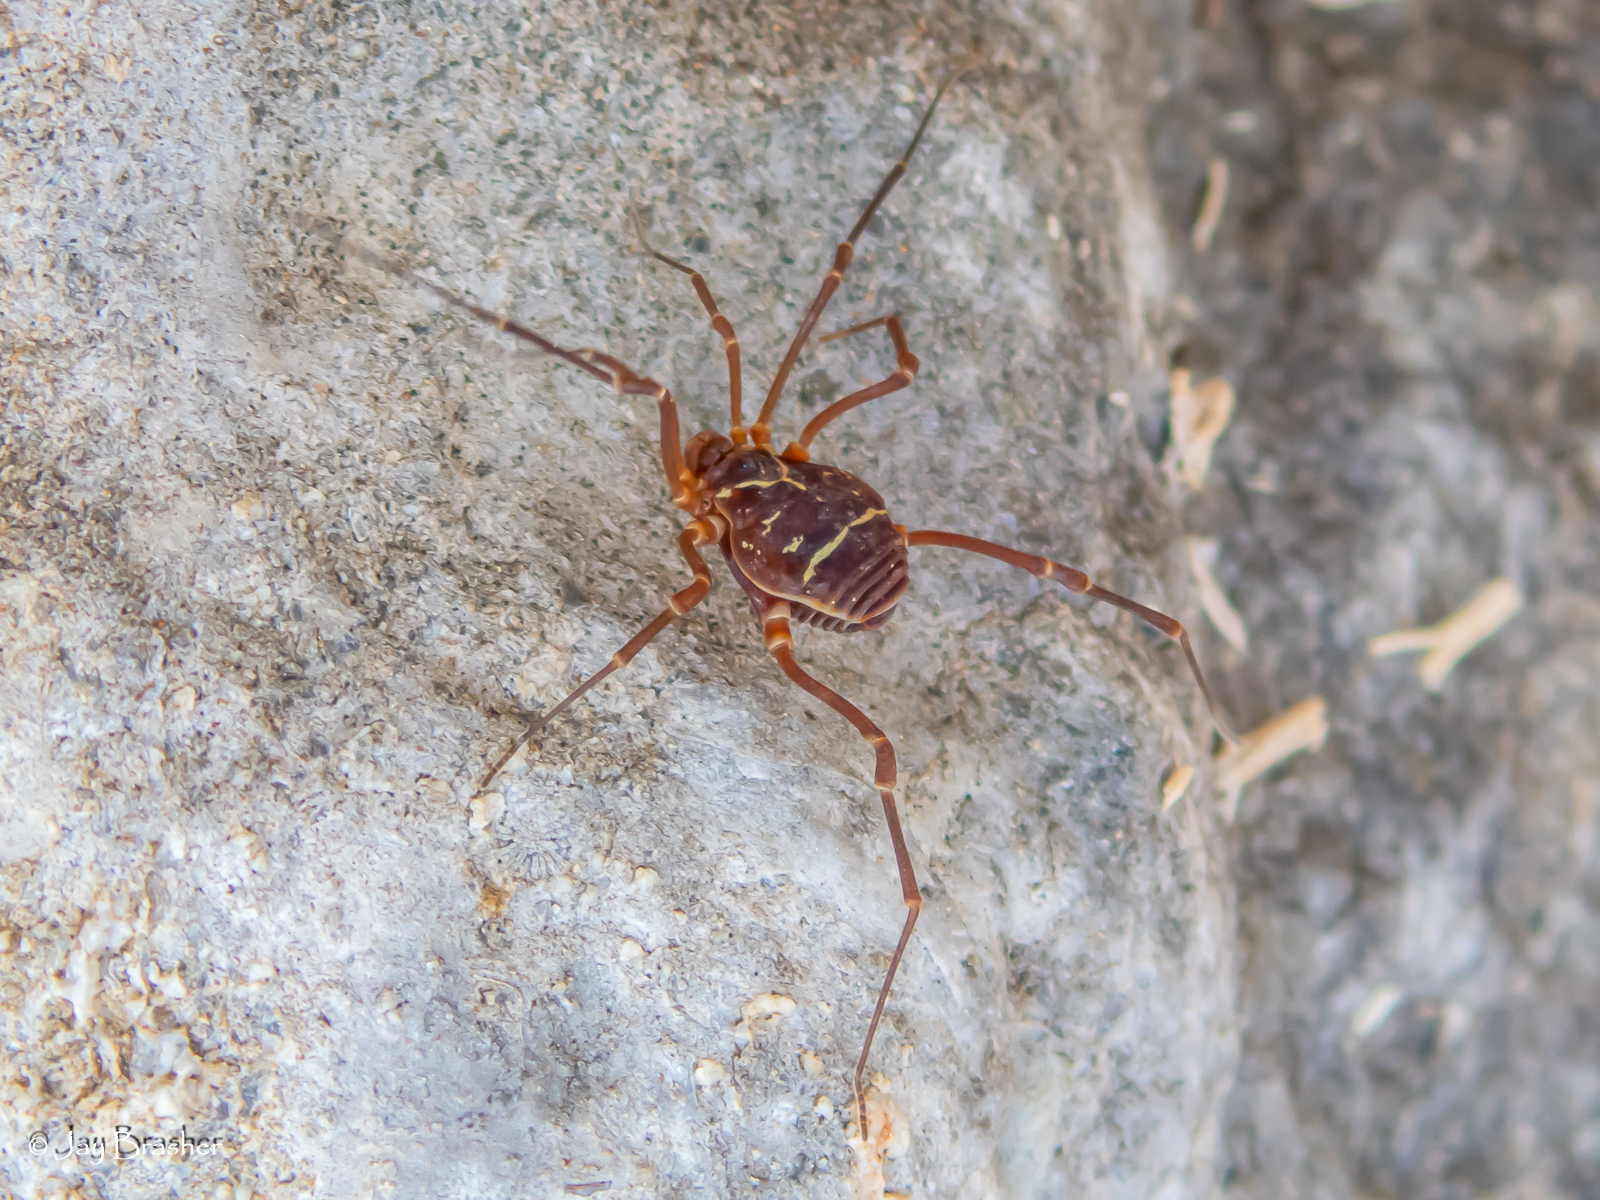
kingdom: Animalia
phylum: Arthropoda
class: Arachnida
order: Opiliones
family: Cosmetidae
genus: Libitioides
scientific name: Libitioides sayi
